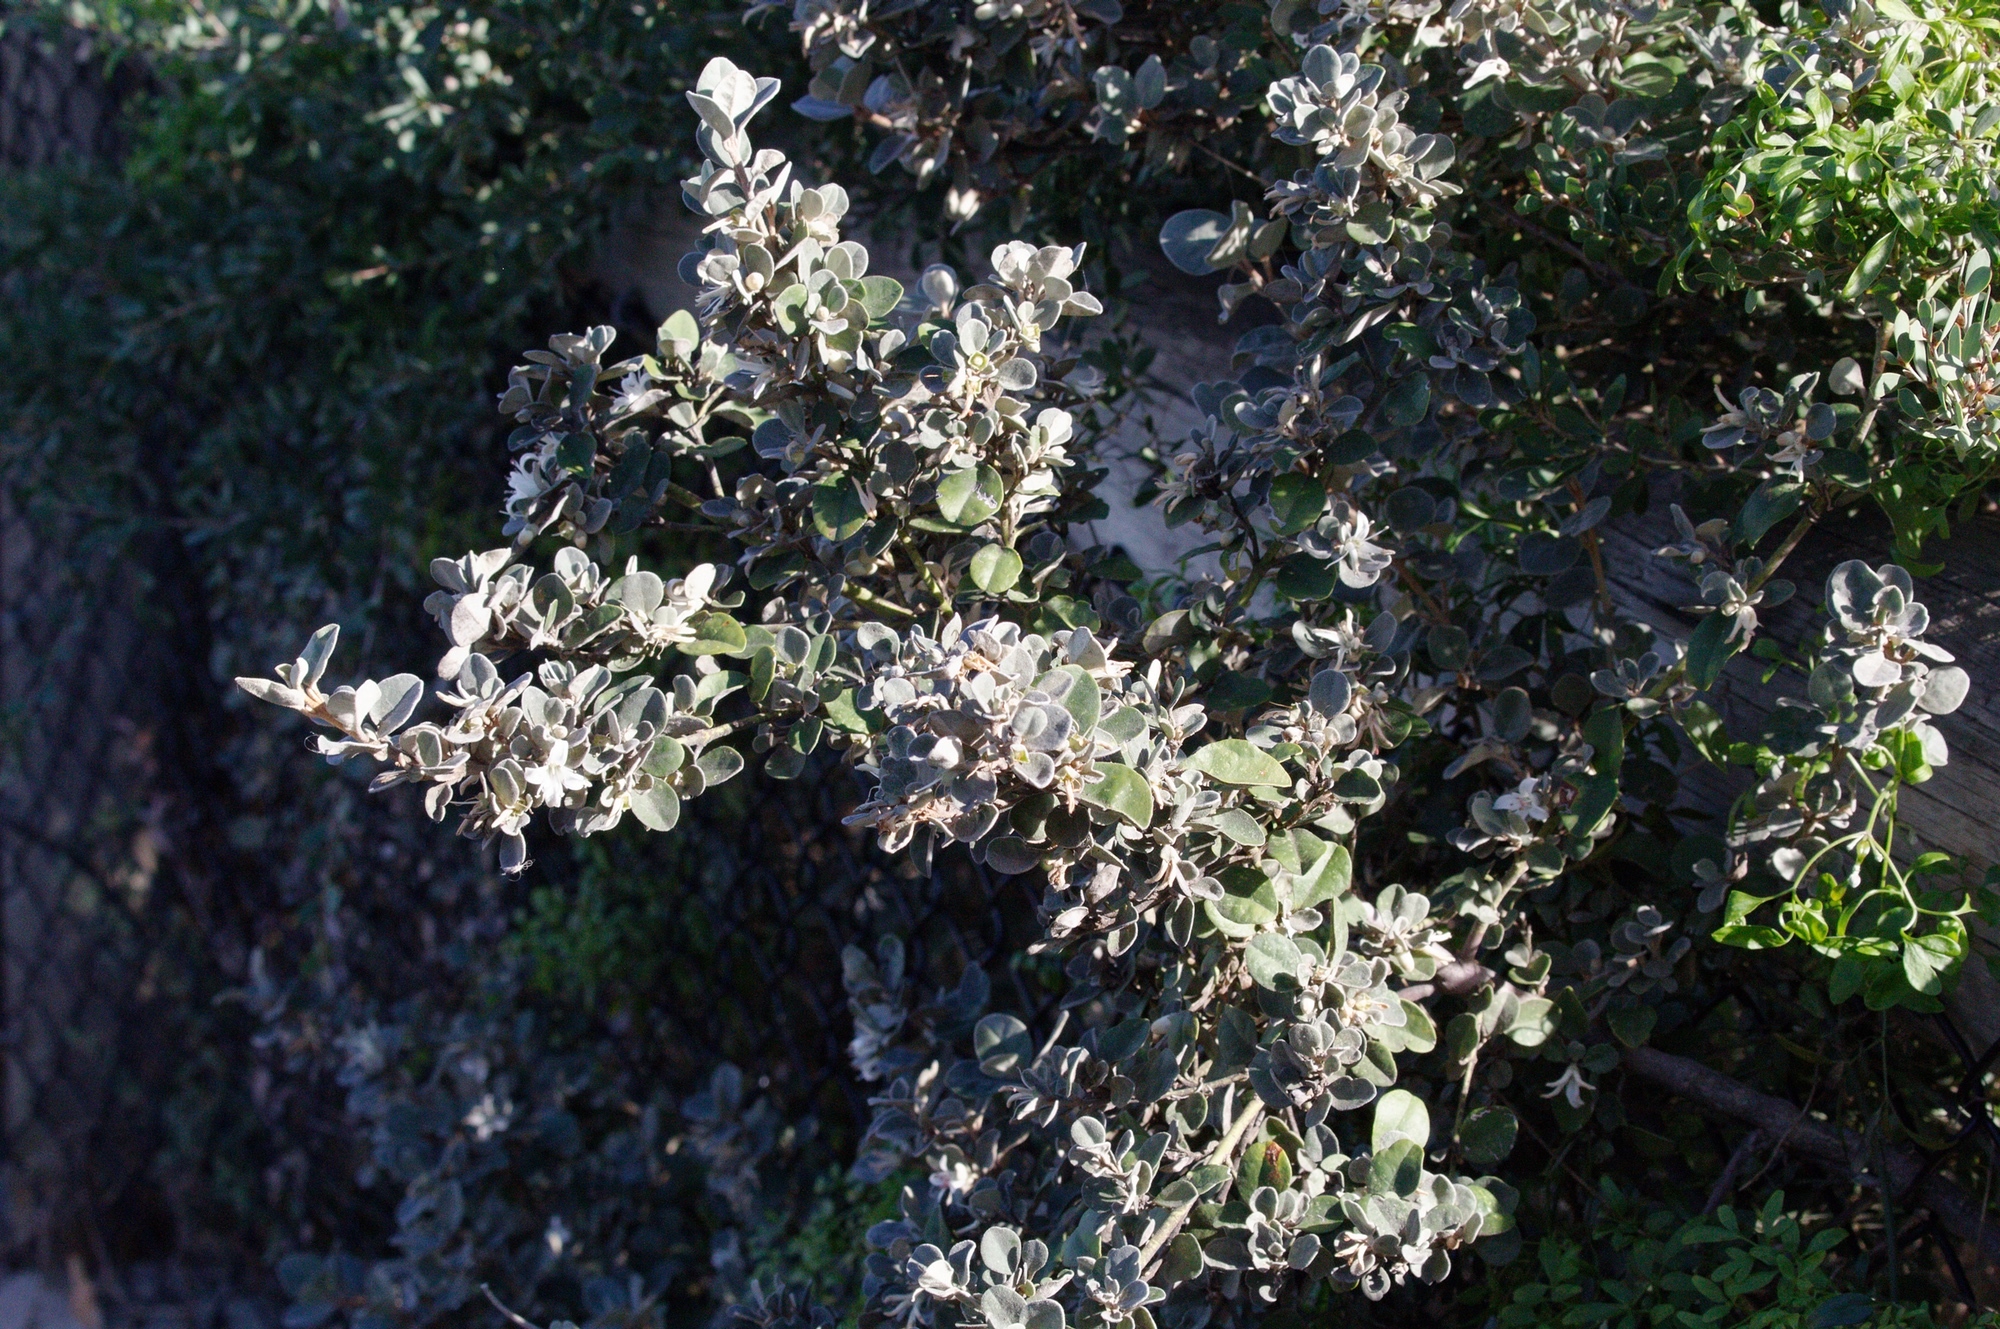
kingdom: Plantae
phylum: Tracheophyta
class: Magnoliopsida
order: Sapindales
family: Rutaceae
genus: Correa
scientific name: Correa alba
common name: White correa
